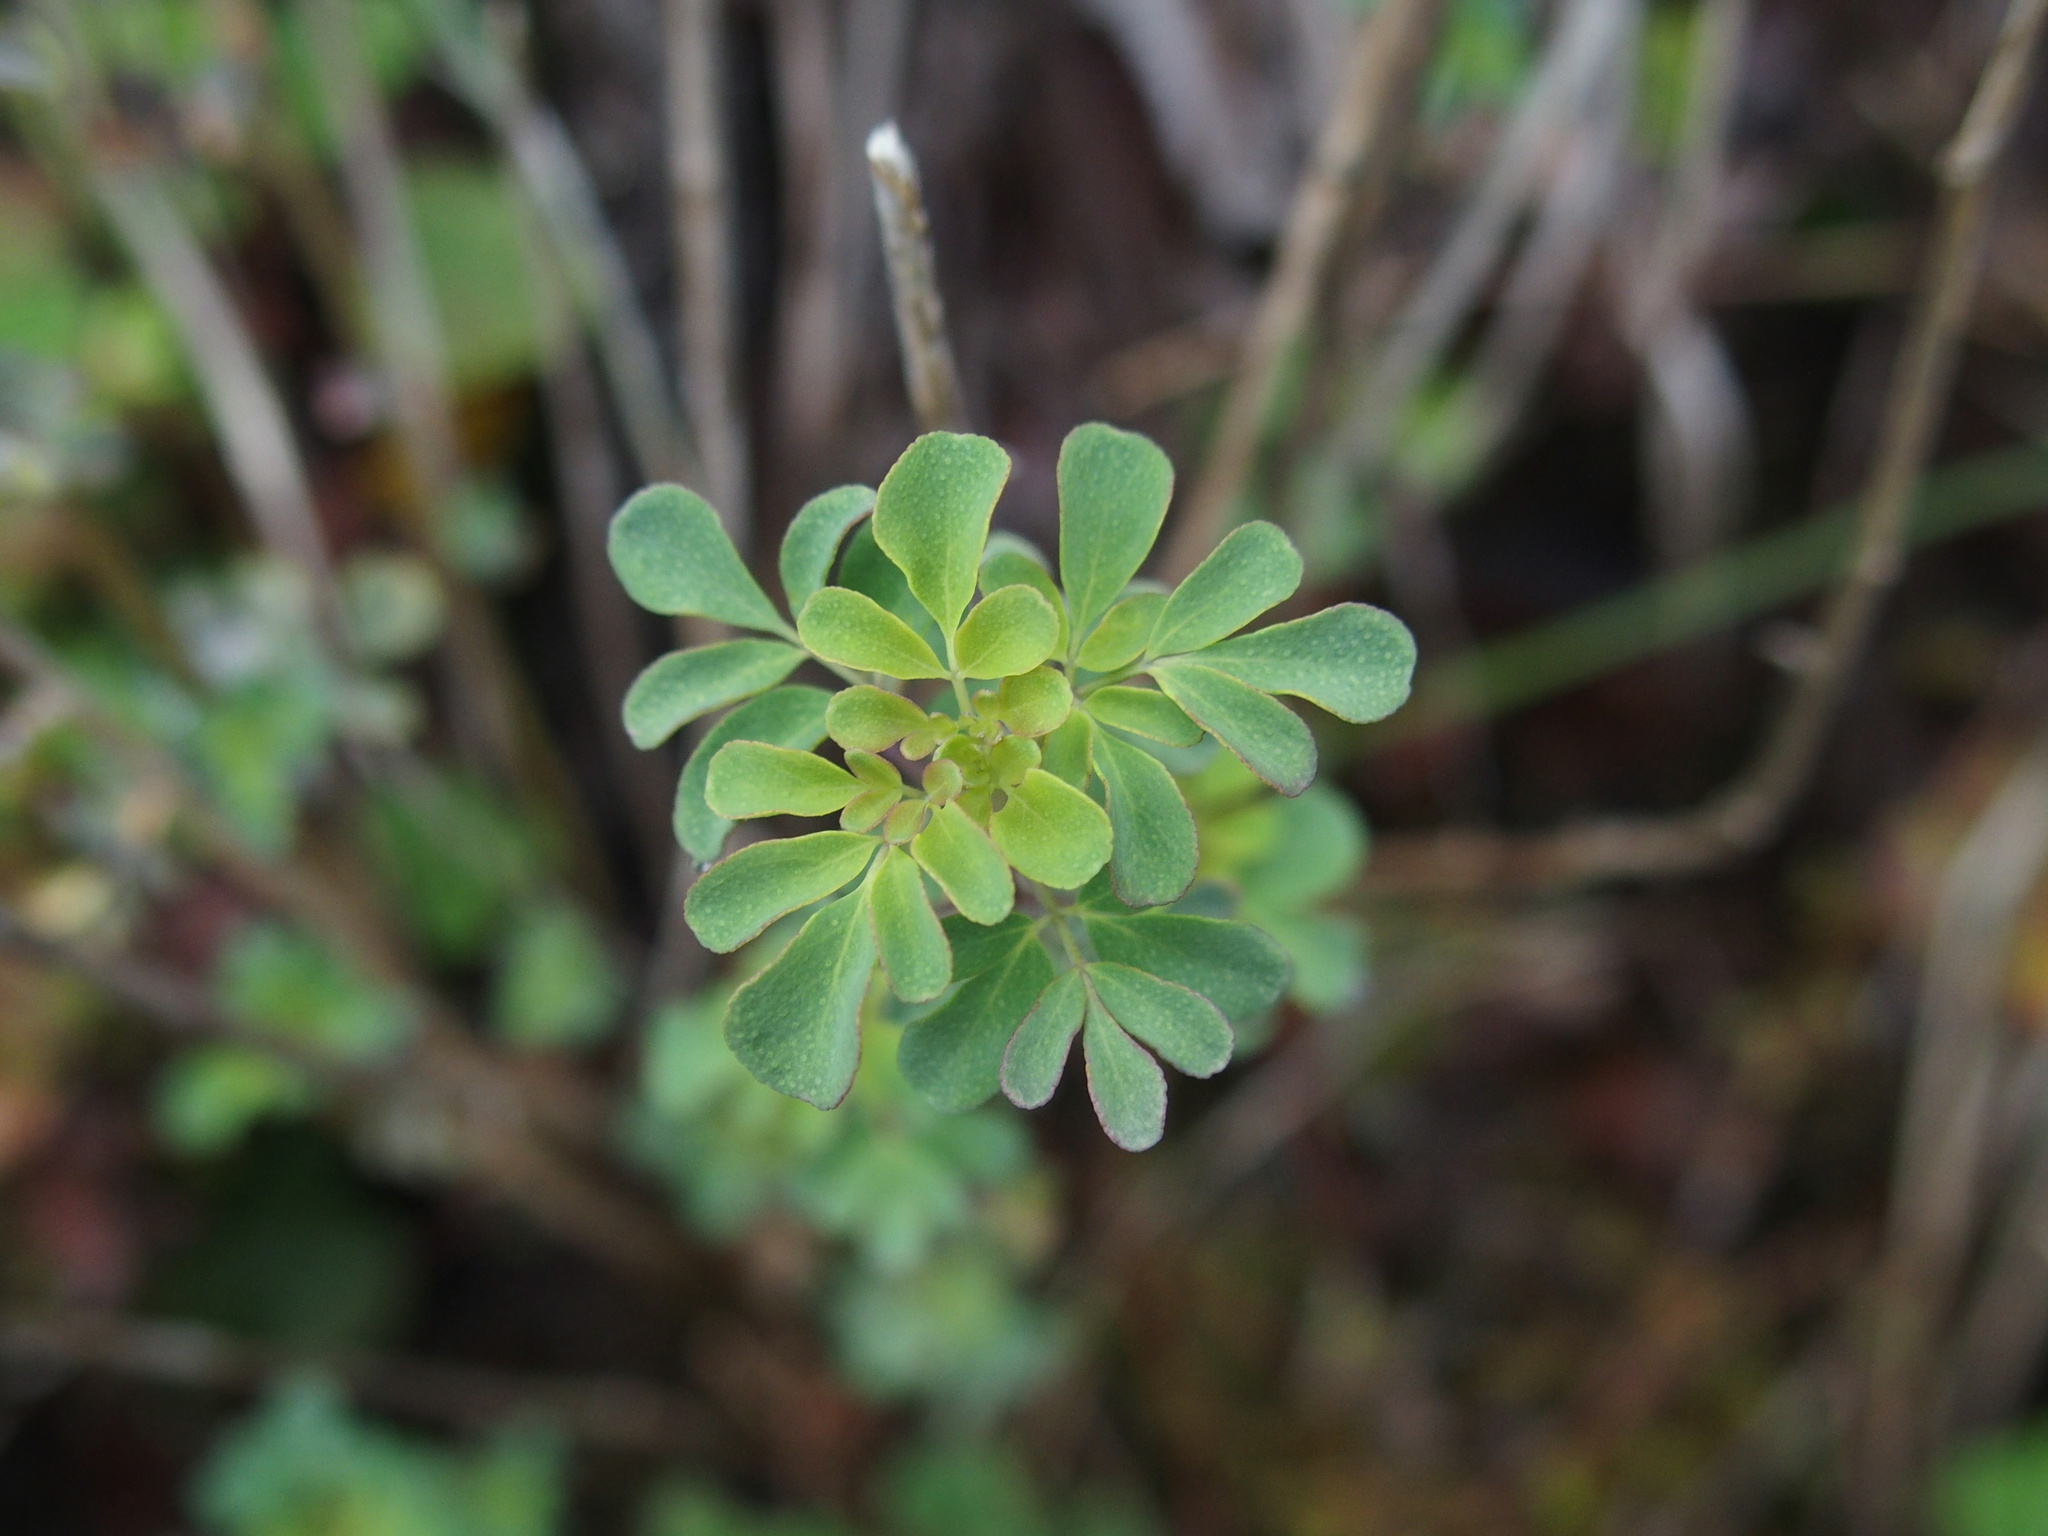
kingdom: Plantae
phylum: Tracheophyta
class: Magnoliopsida
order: Sapindales
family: Rutaceae
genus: Boenninghausenia
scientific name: Boenninghausenia albiflora
